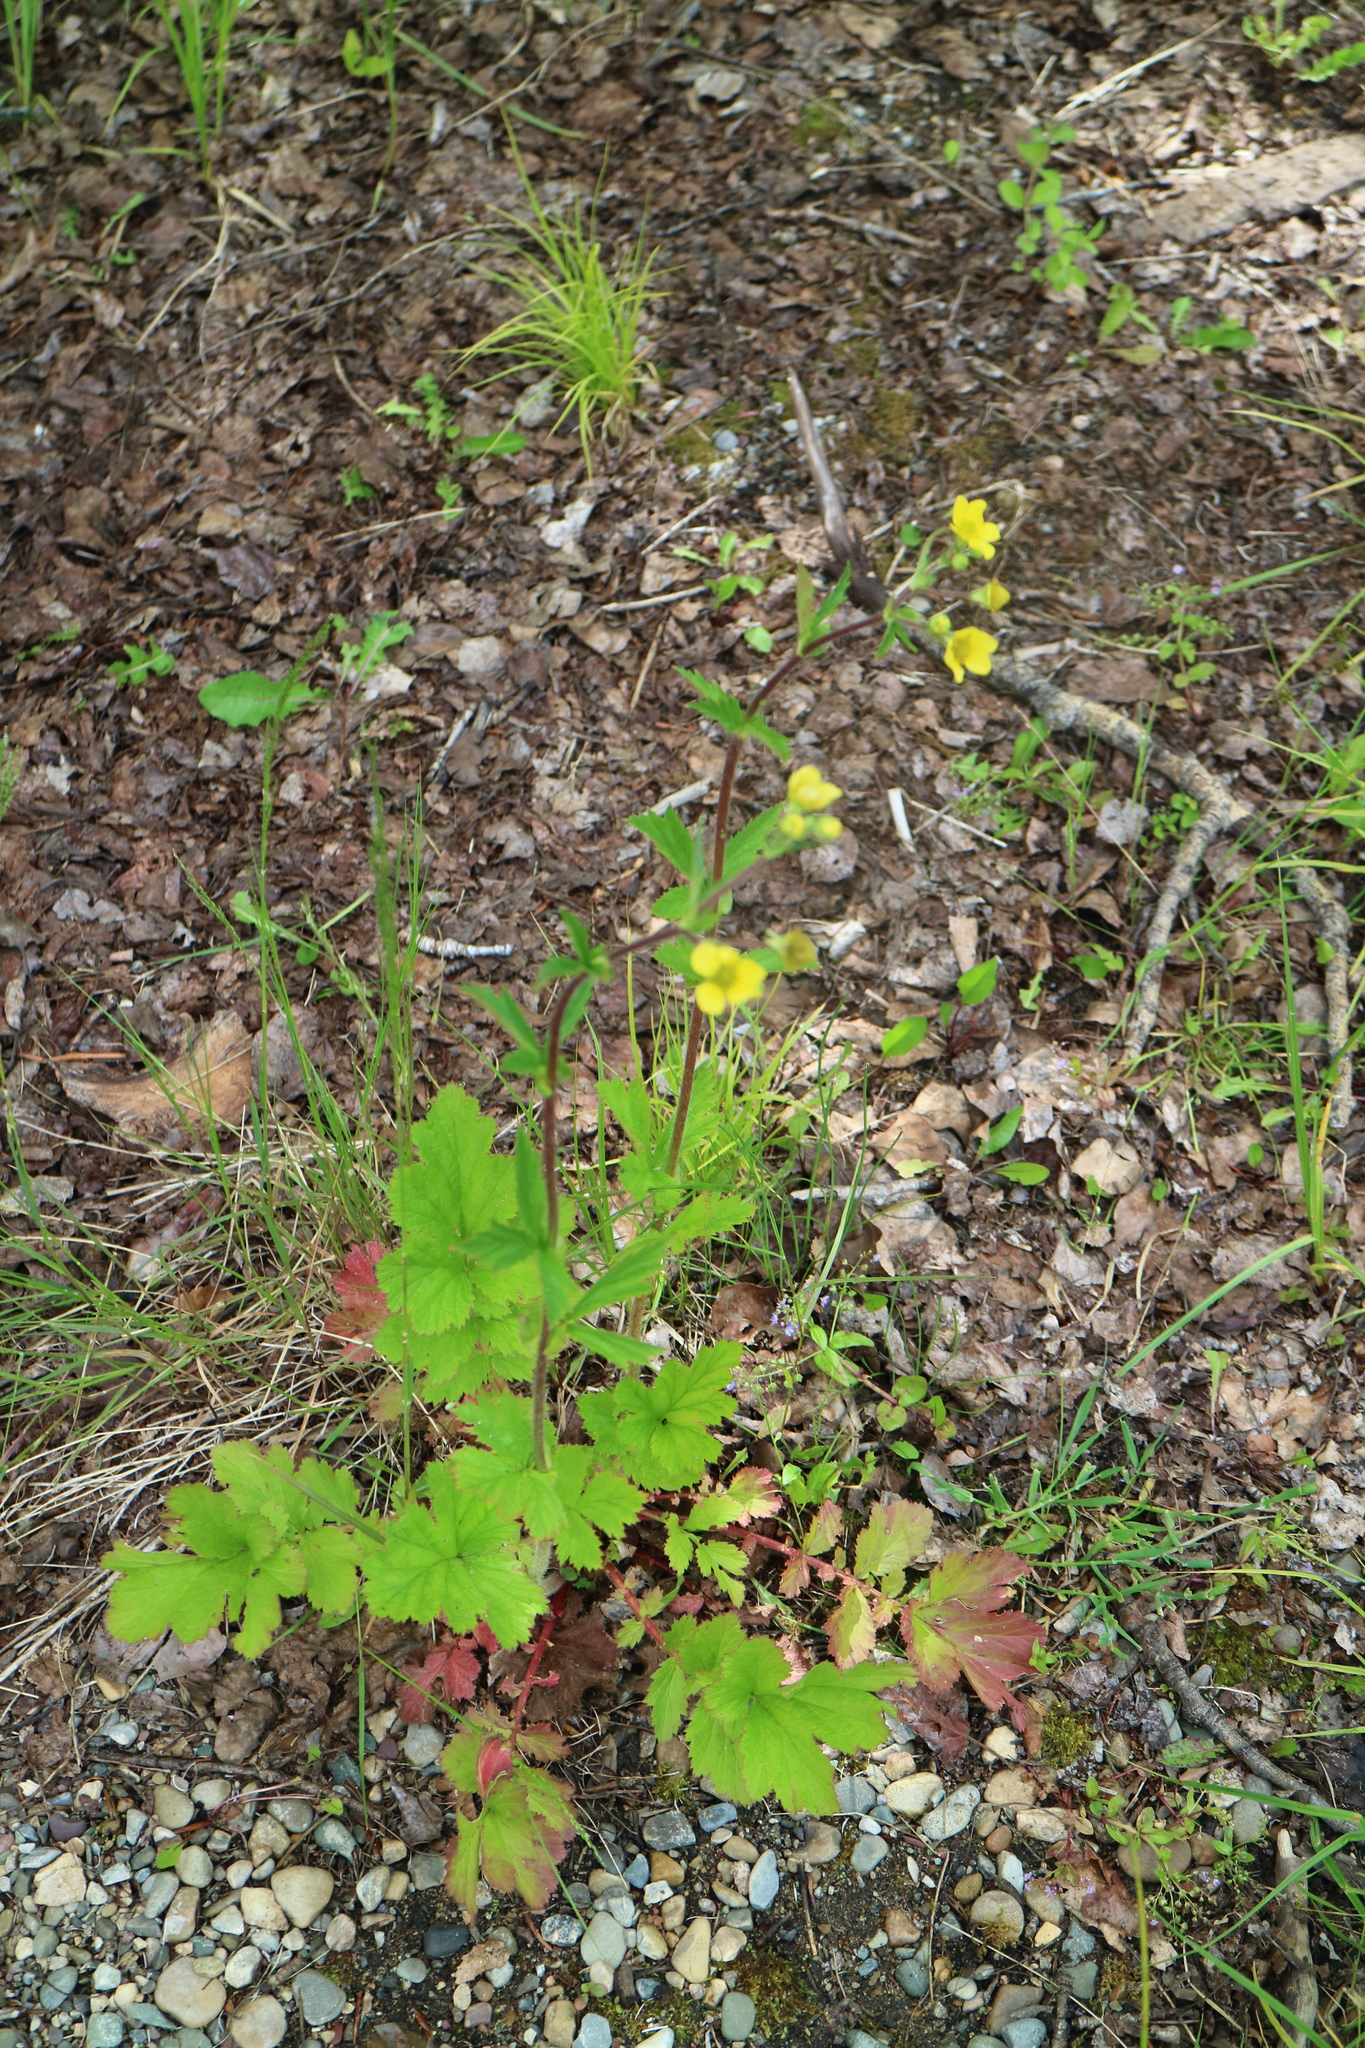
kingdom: Plantae
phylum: Tracheophyta
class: Magnoliopsida
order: Rosales
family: Rosaceae
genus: Geum
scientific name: Geum macrophyllum
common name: Large-leaved avens
